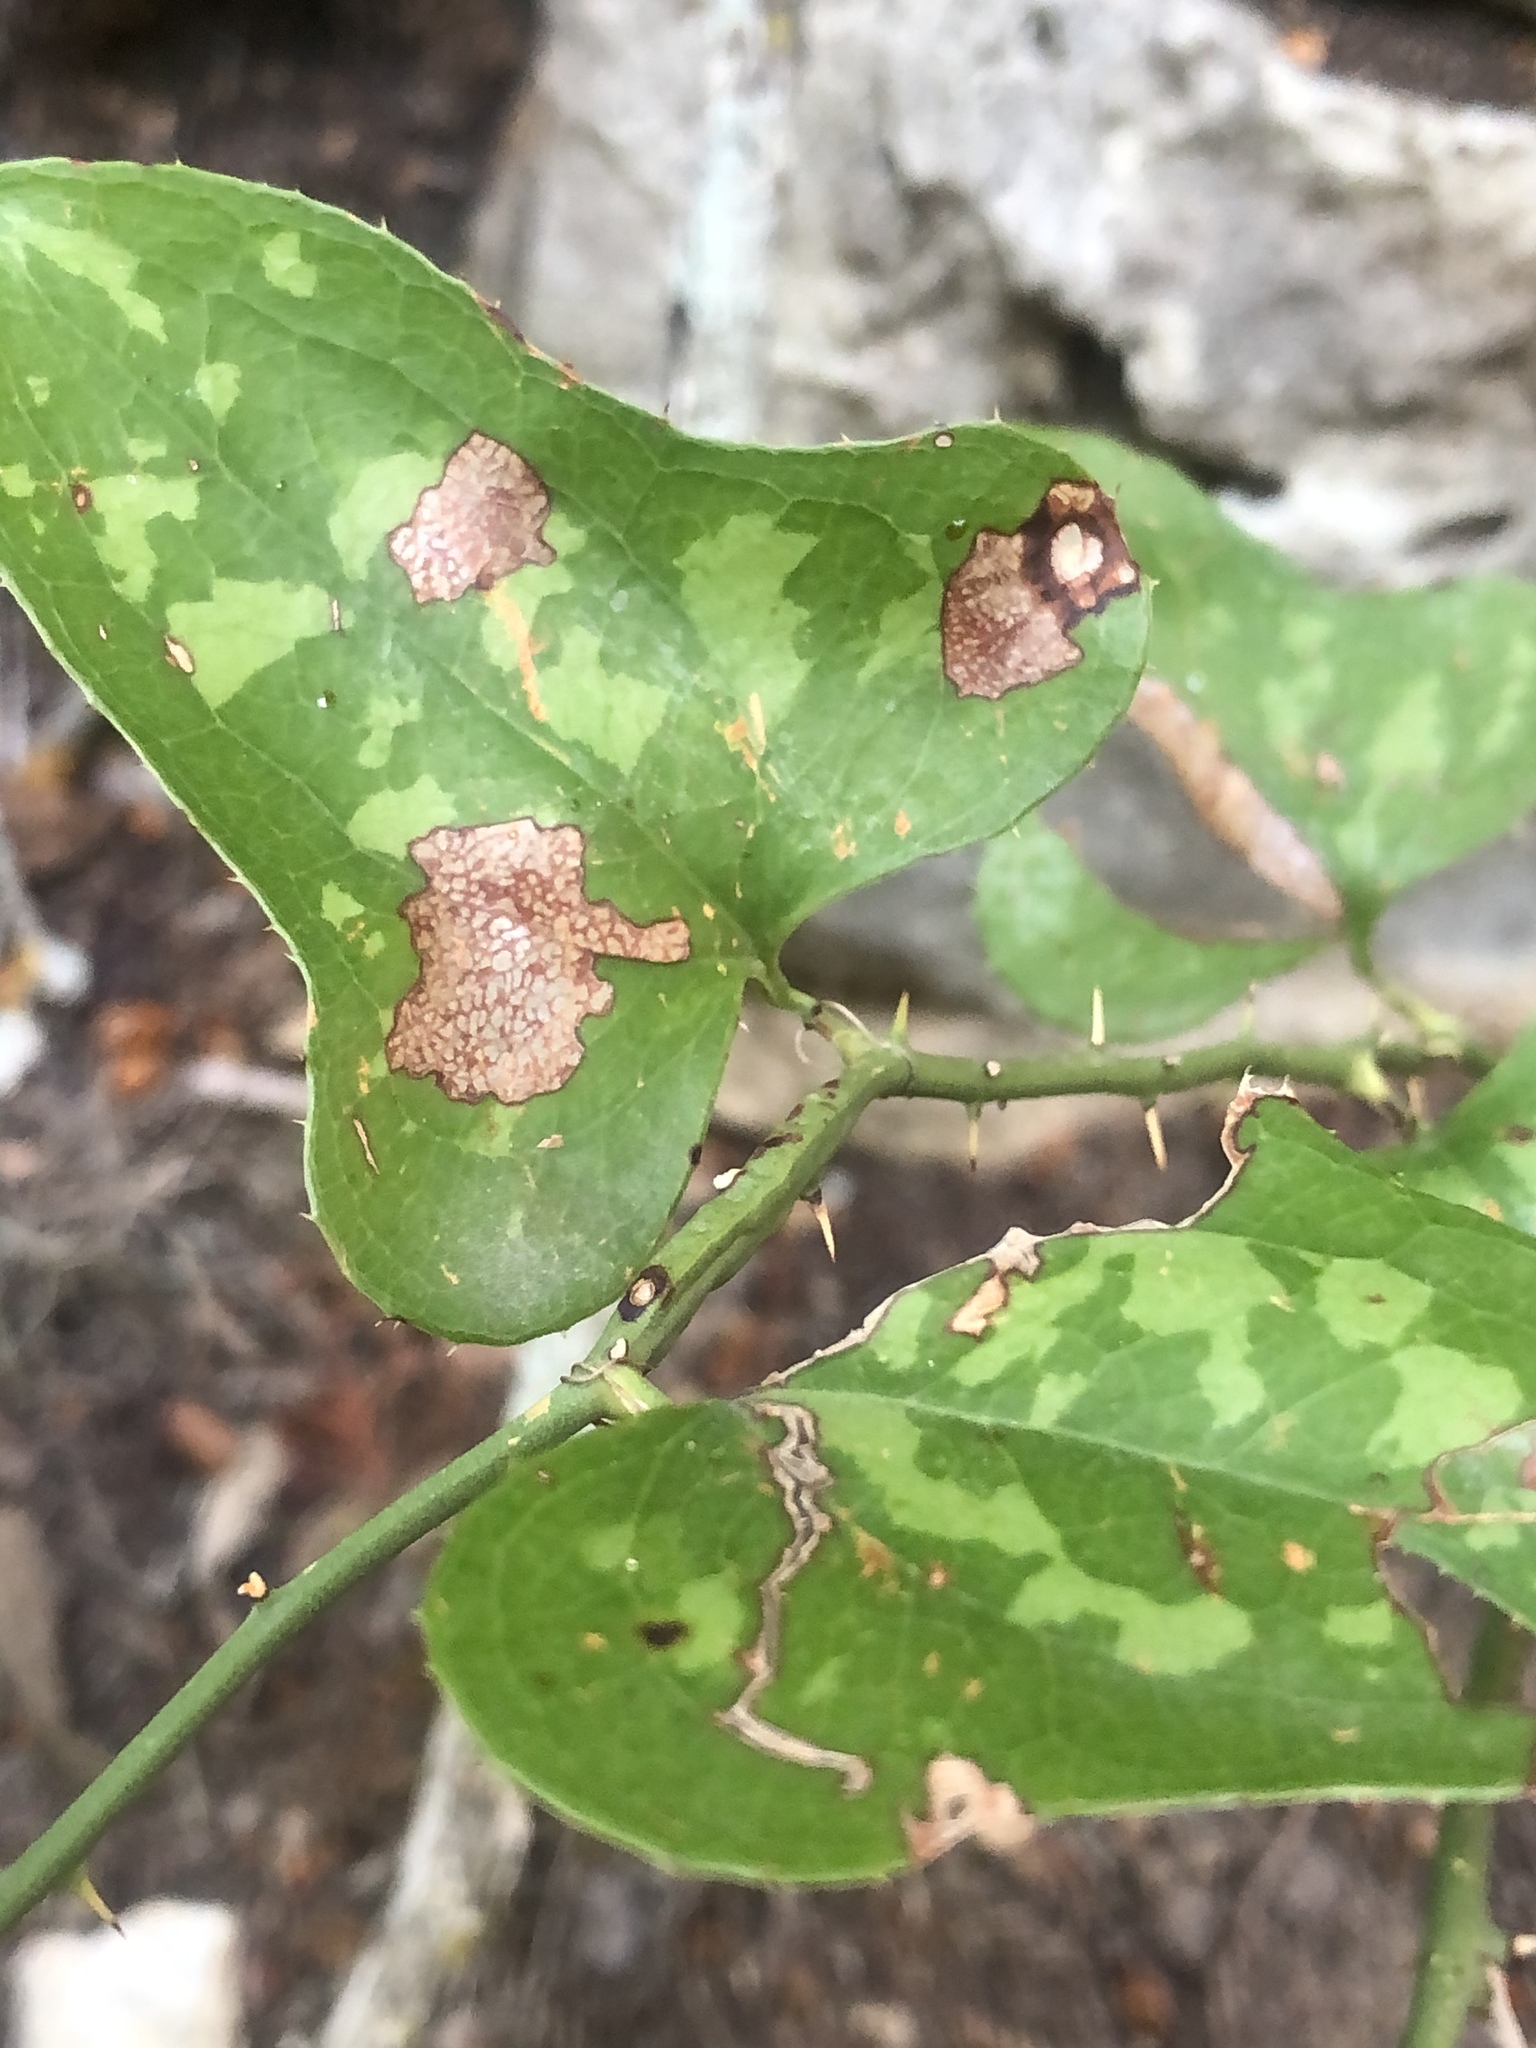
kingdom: Plantae
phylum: Tracheophyta
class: Liliopsida
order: Liliales
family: Smilacaceae
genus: Smilax
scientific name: Smilax bona-nox
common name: Catbrier
